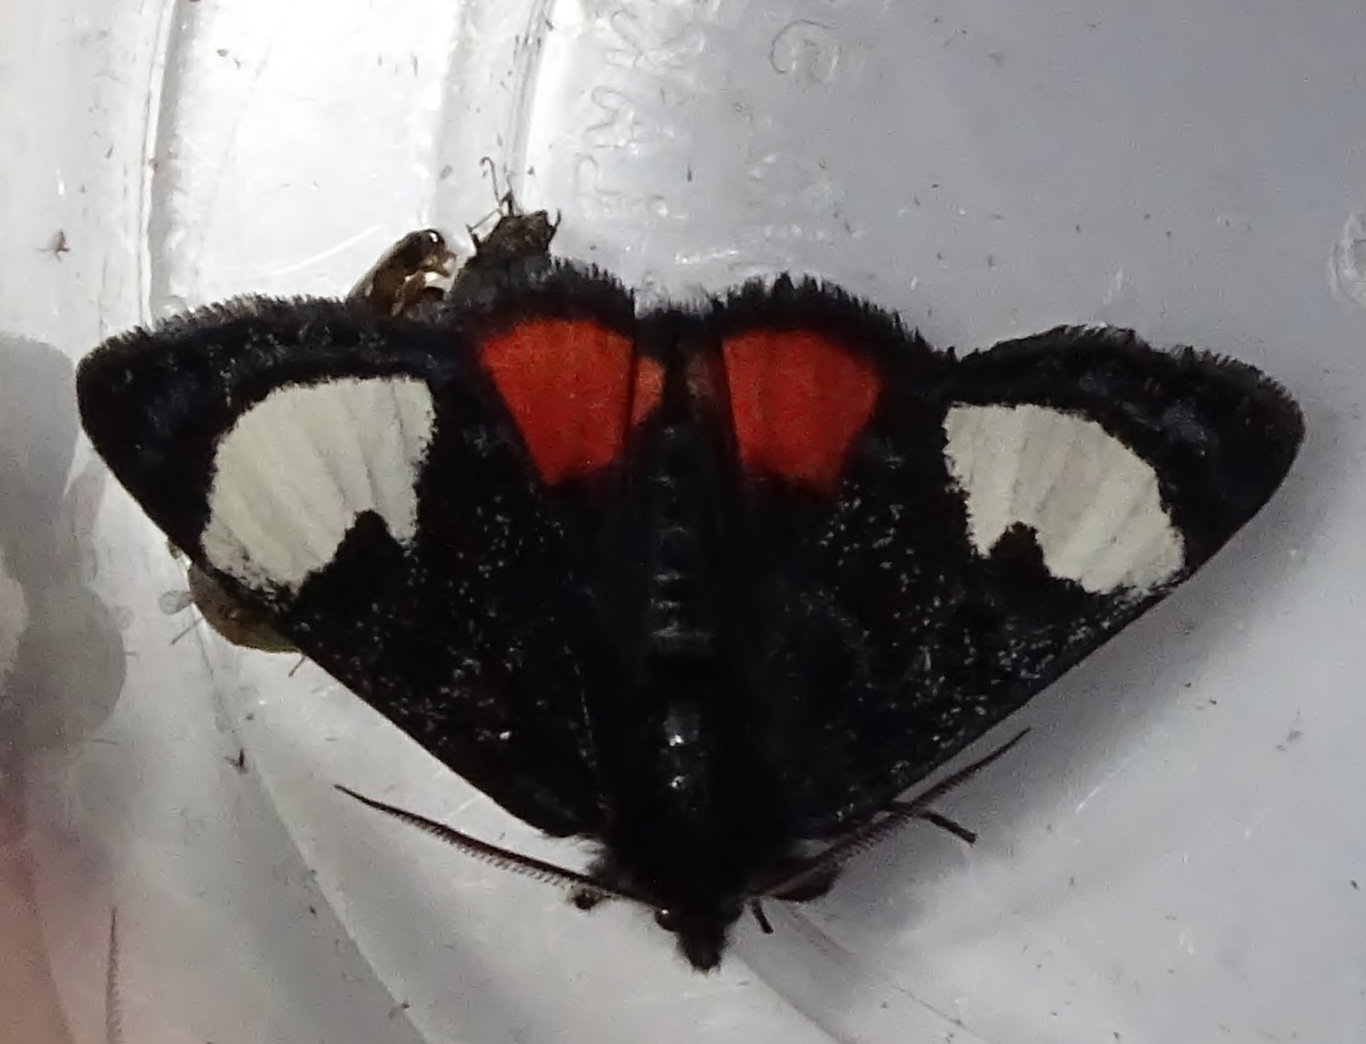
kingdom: Animalia
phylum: Arthropoda
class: Insecta
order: Lepidoptera
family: Noctuidae
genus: Psychomorpha
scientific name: Psychomorpha epimenis
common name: Grapevine epimenis moth
